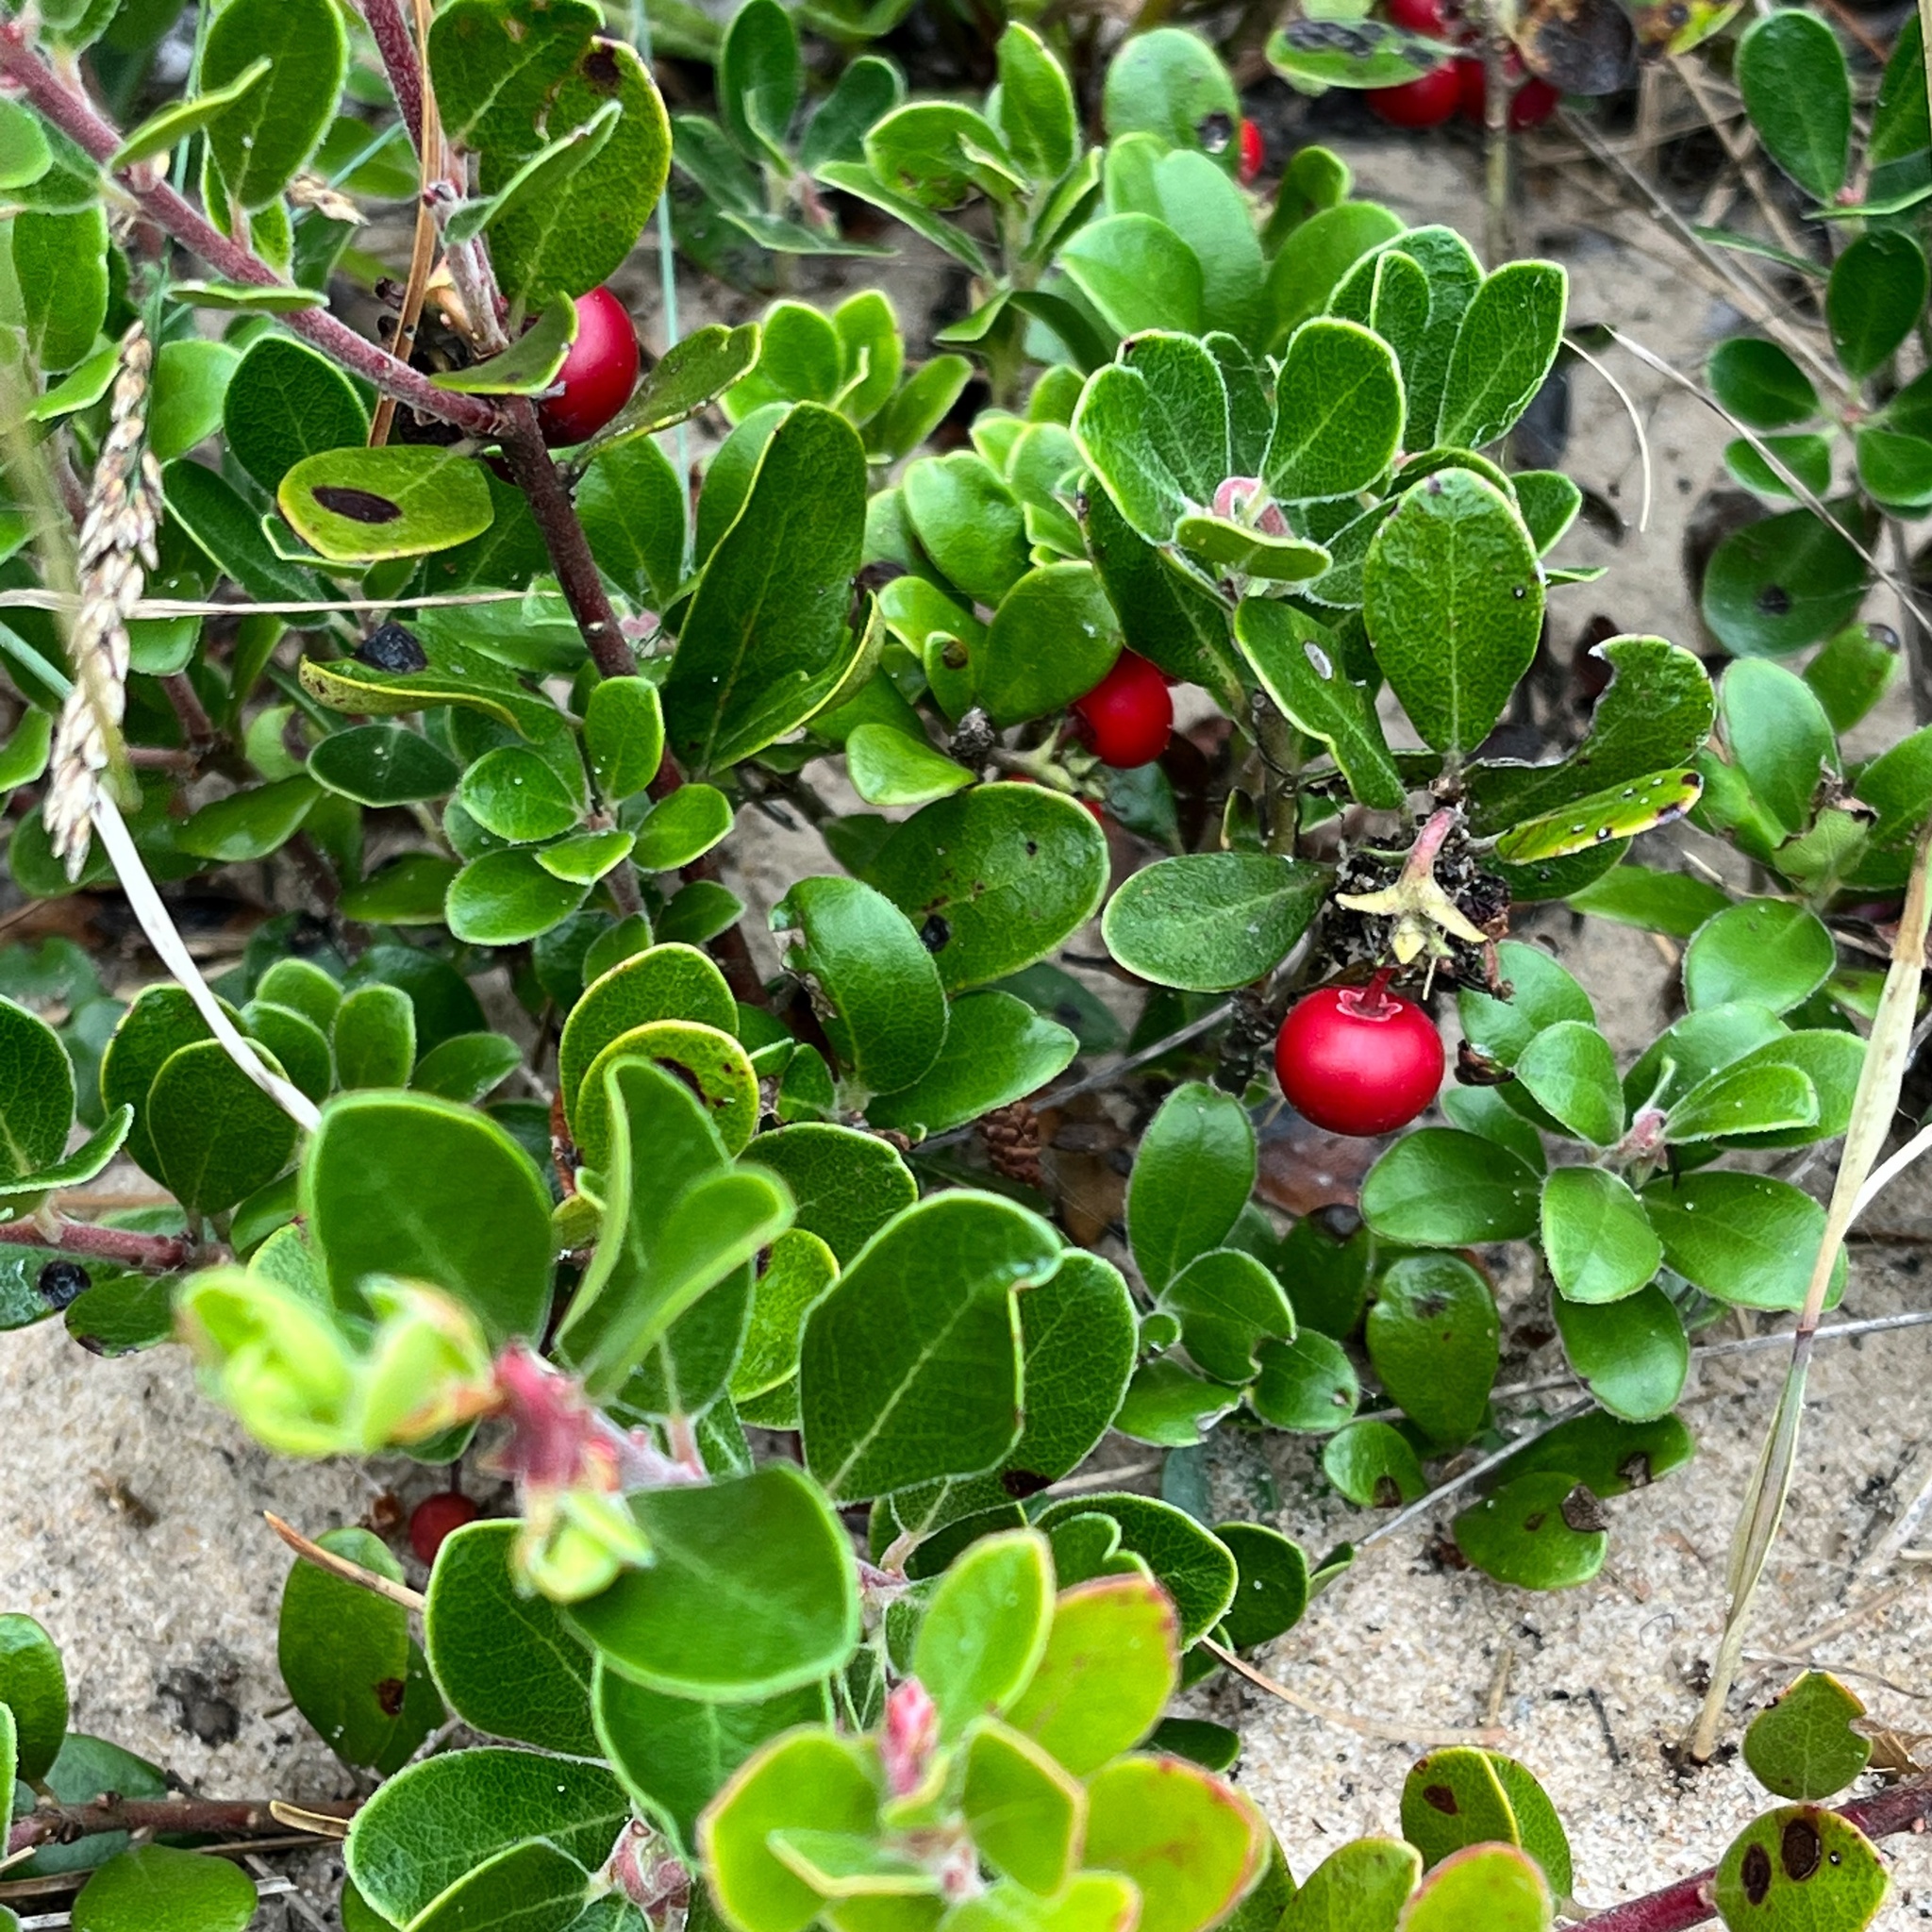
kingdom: Plantae
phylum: Tracheophyta
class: Magnoliopsida
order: Ericales
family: Ericaceae
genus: Arctostaphylos
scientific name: Arctostaphylos uva-ursi
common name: Bearberry
